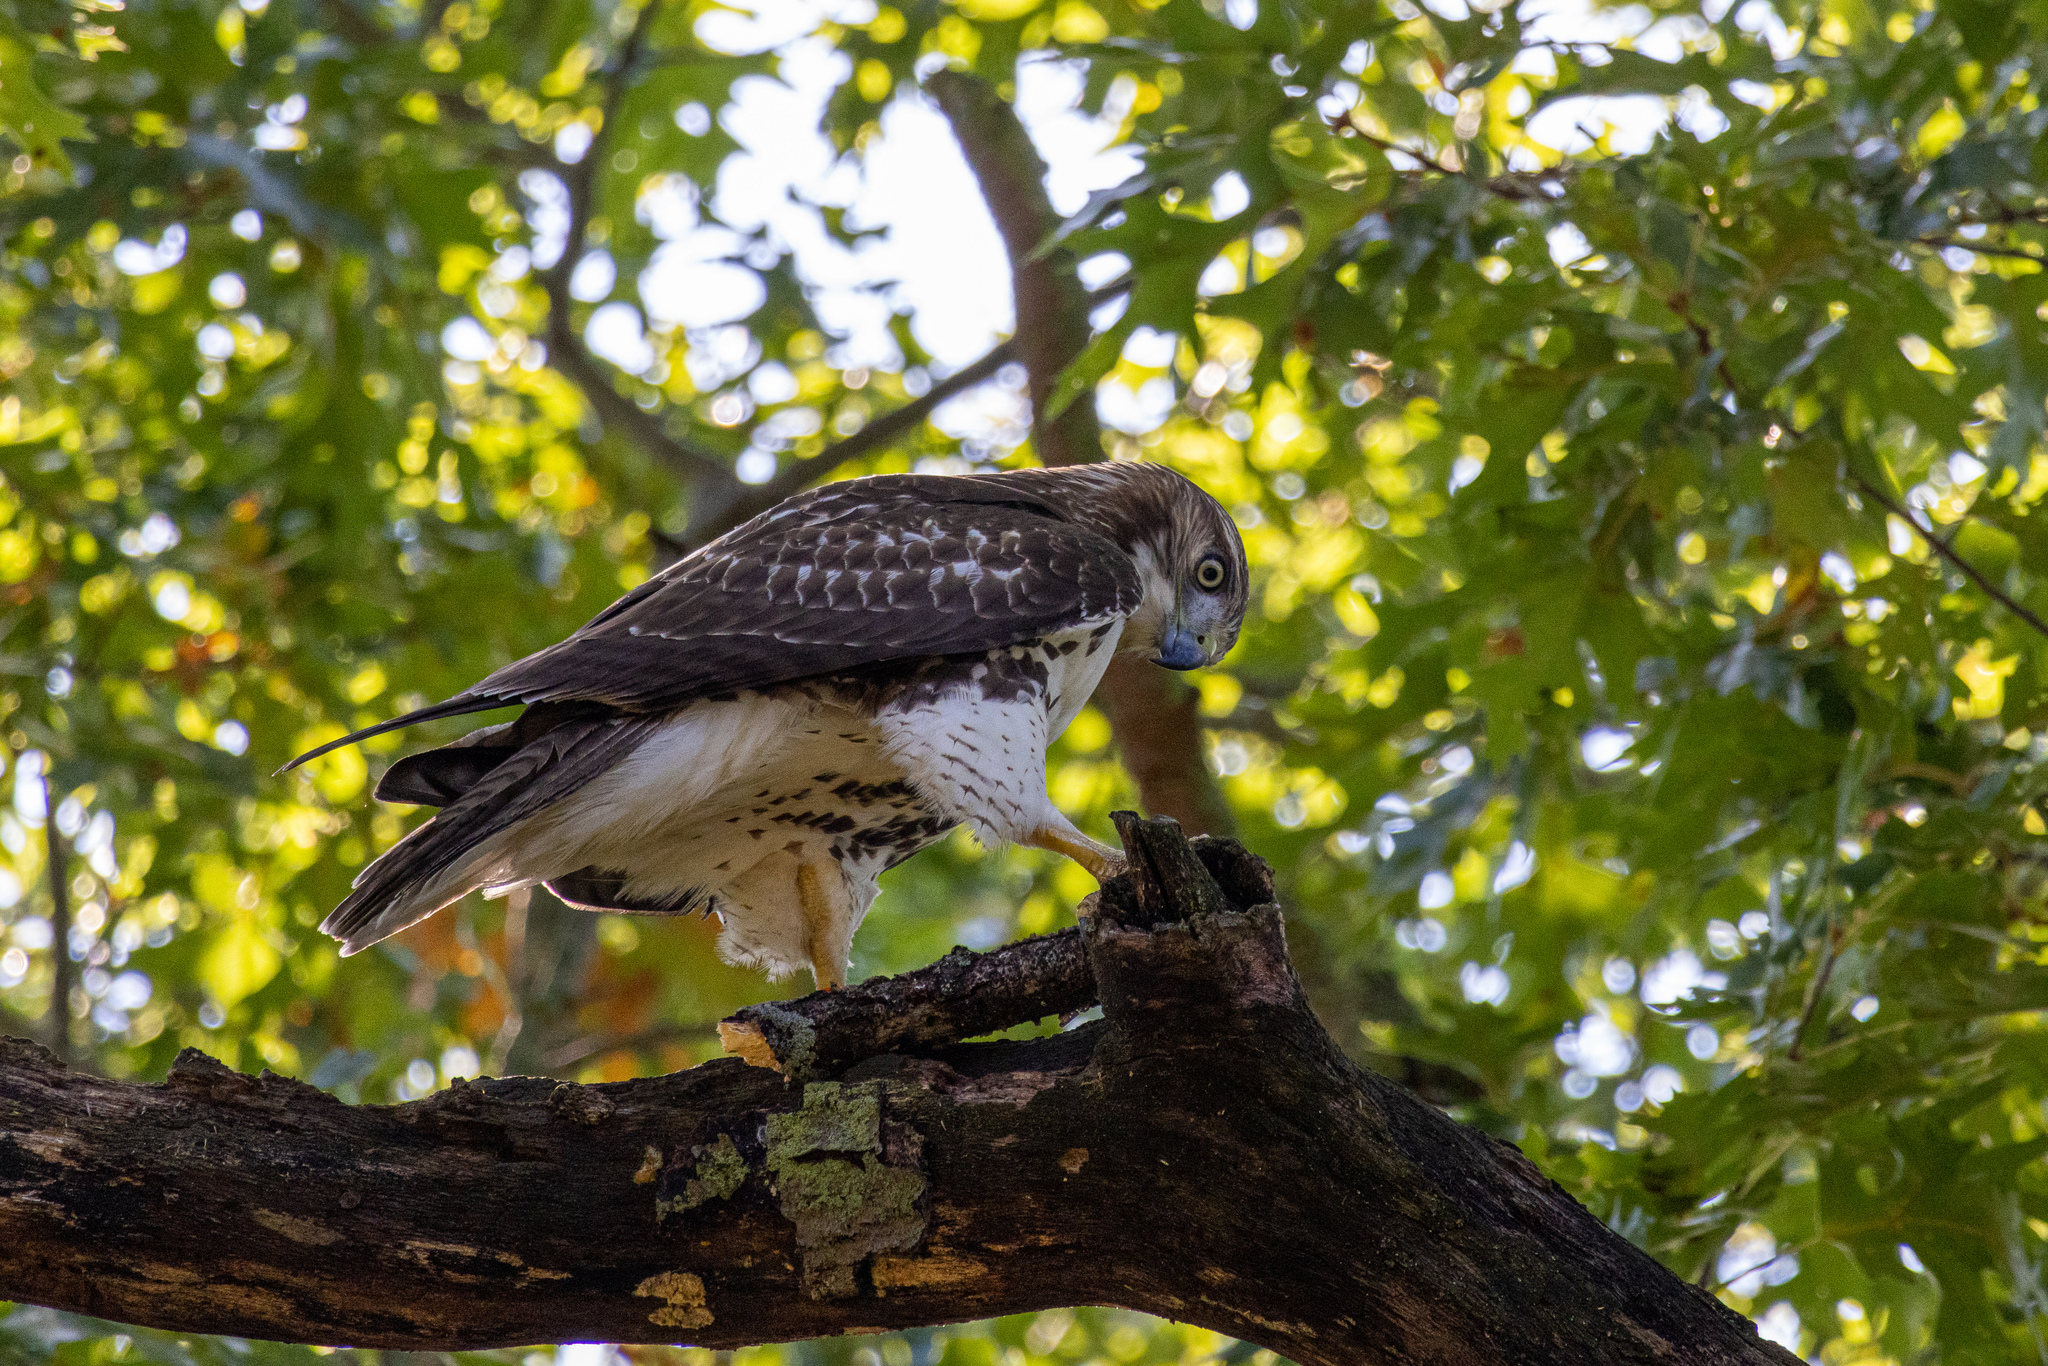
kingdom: Animalia
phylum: Chordata
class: Aves
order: Accipitriformes
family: Accipitridae
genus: Buteo
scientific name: Buteo jamaicensis
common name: Red-tailed hawk
